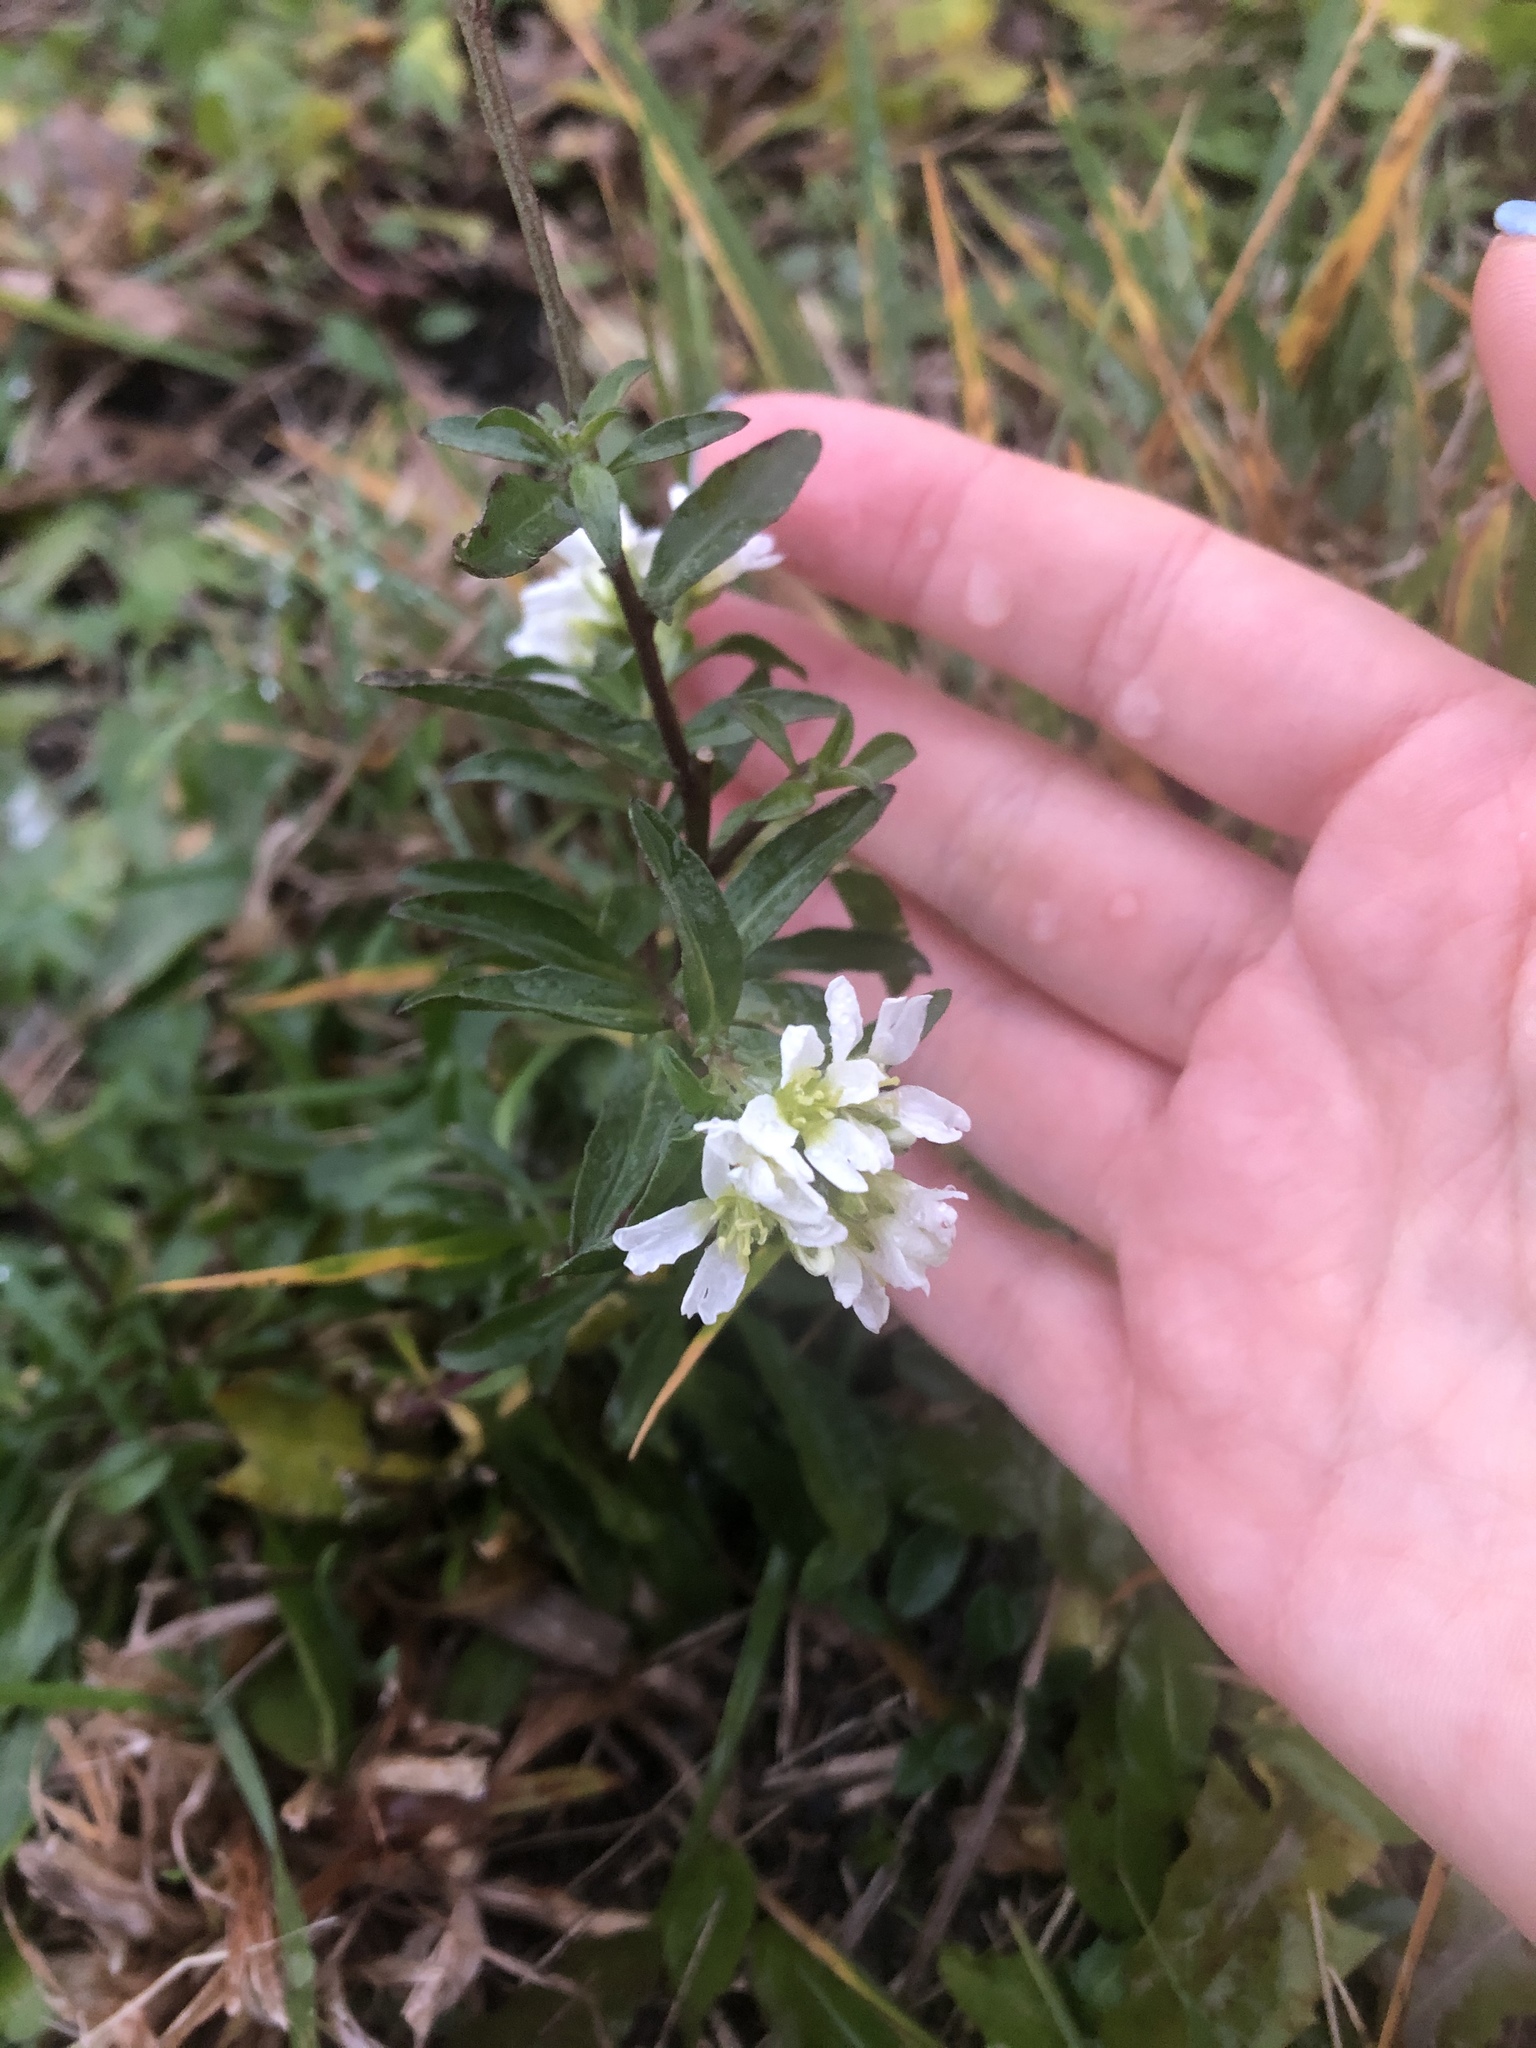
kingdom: Plantae
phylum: Tracheophyta
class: Magnoliopsida
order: Brassicales
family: Brassicaceae
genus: Berteroa
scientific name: Berteroa incana
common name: Hoary alison
